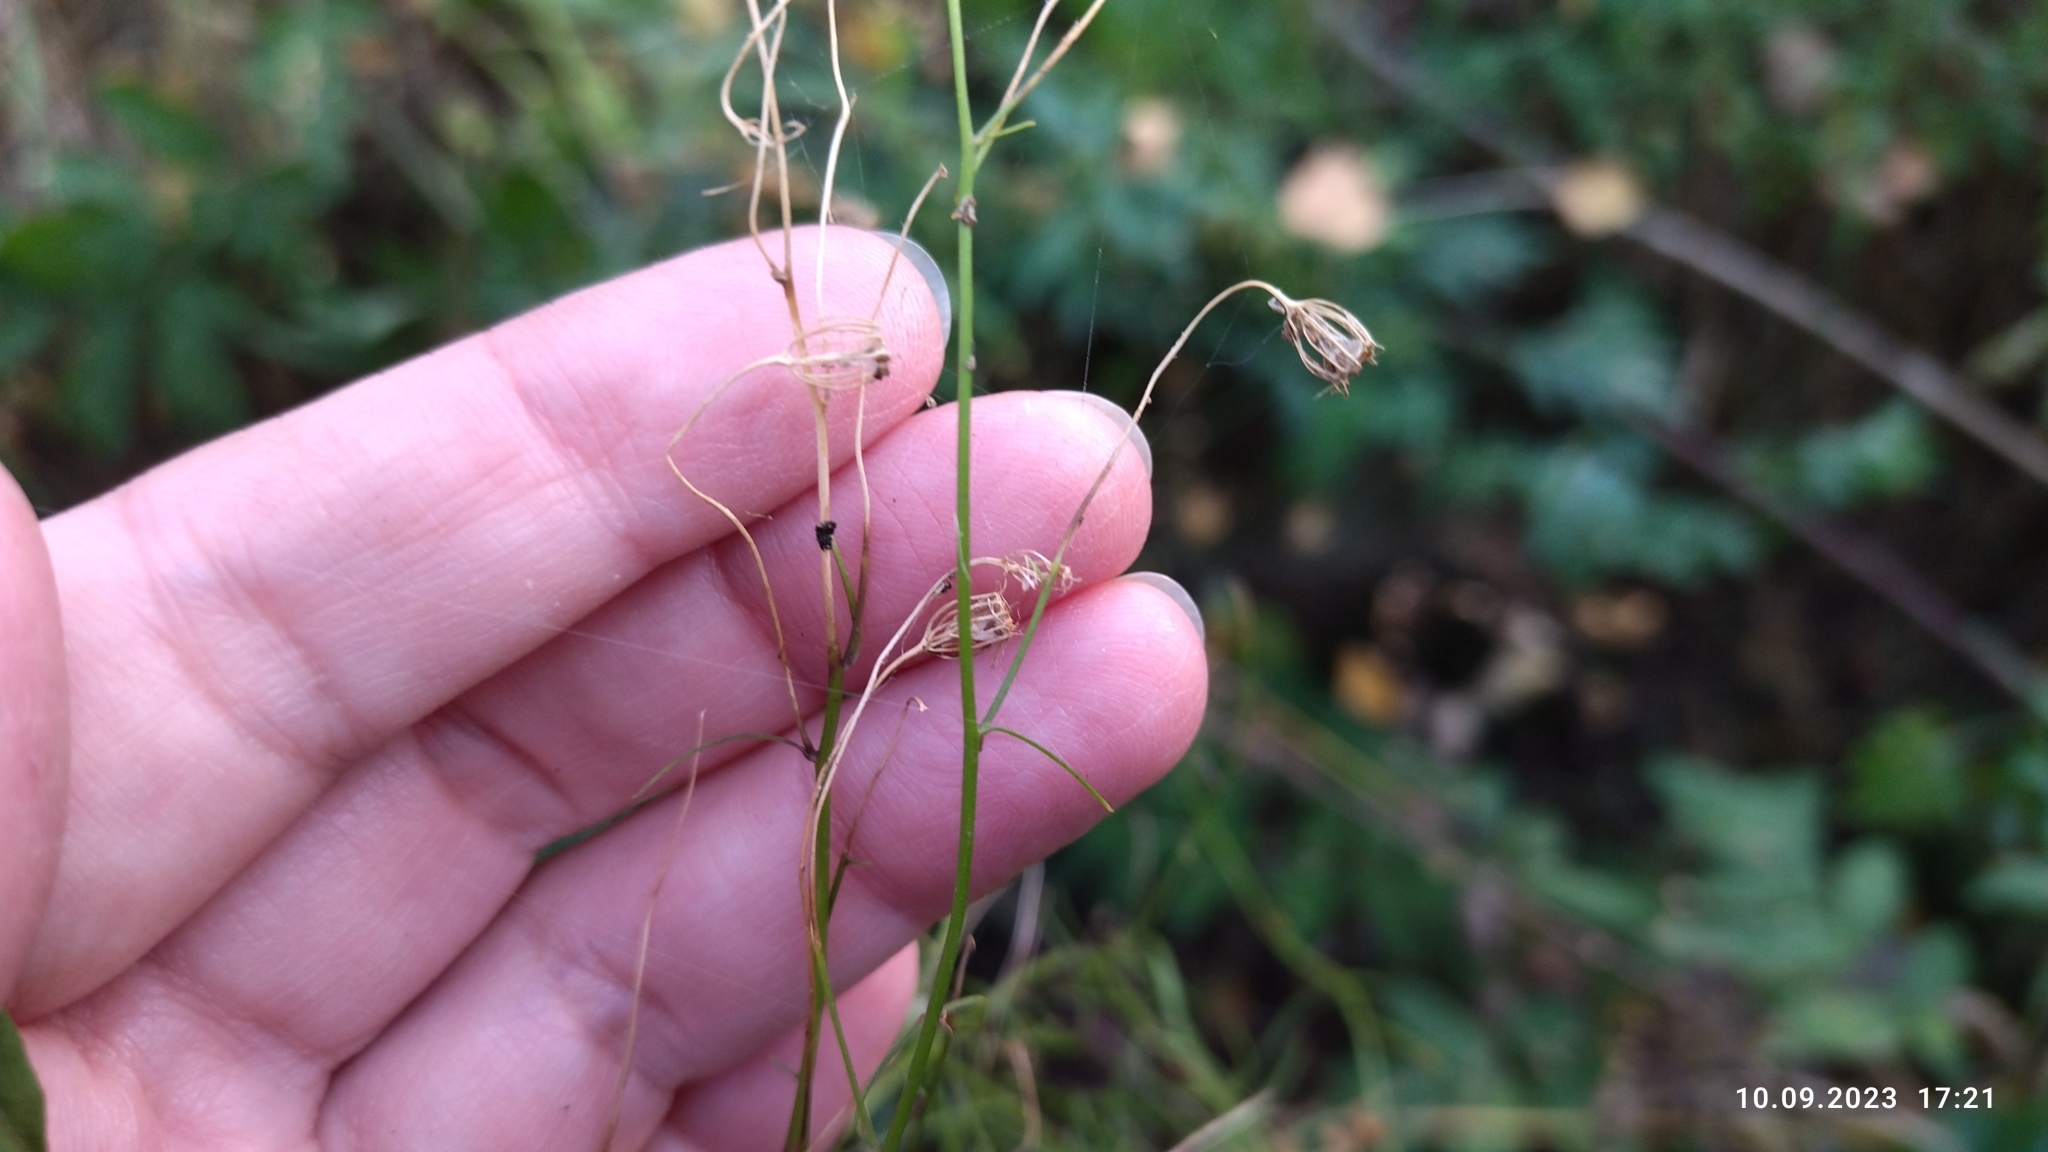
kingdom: Plantae
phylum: Tracheophyta
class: Magnoliopsida
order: Asterales
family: Campanulaceae
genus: Campanula
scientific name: Campanula rotundifolia
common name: Harebell
